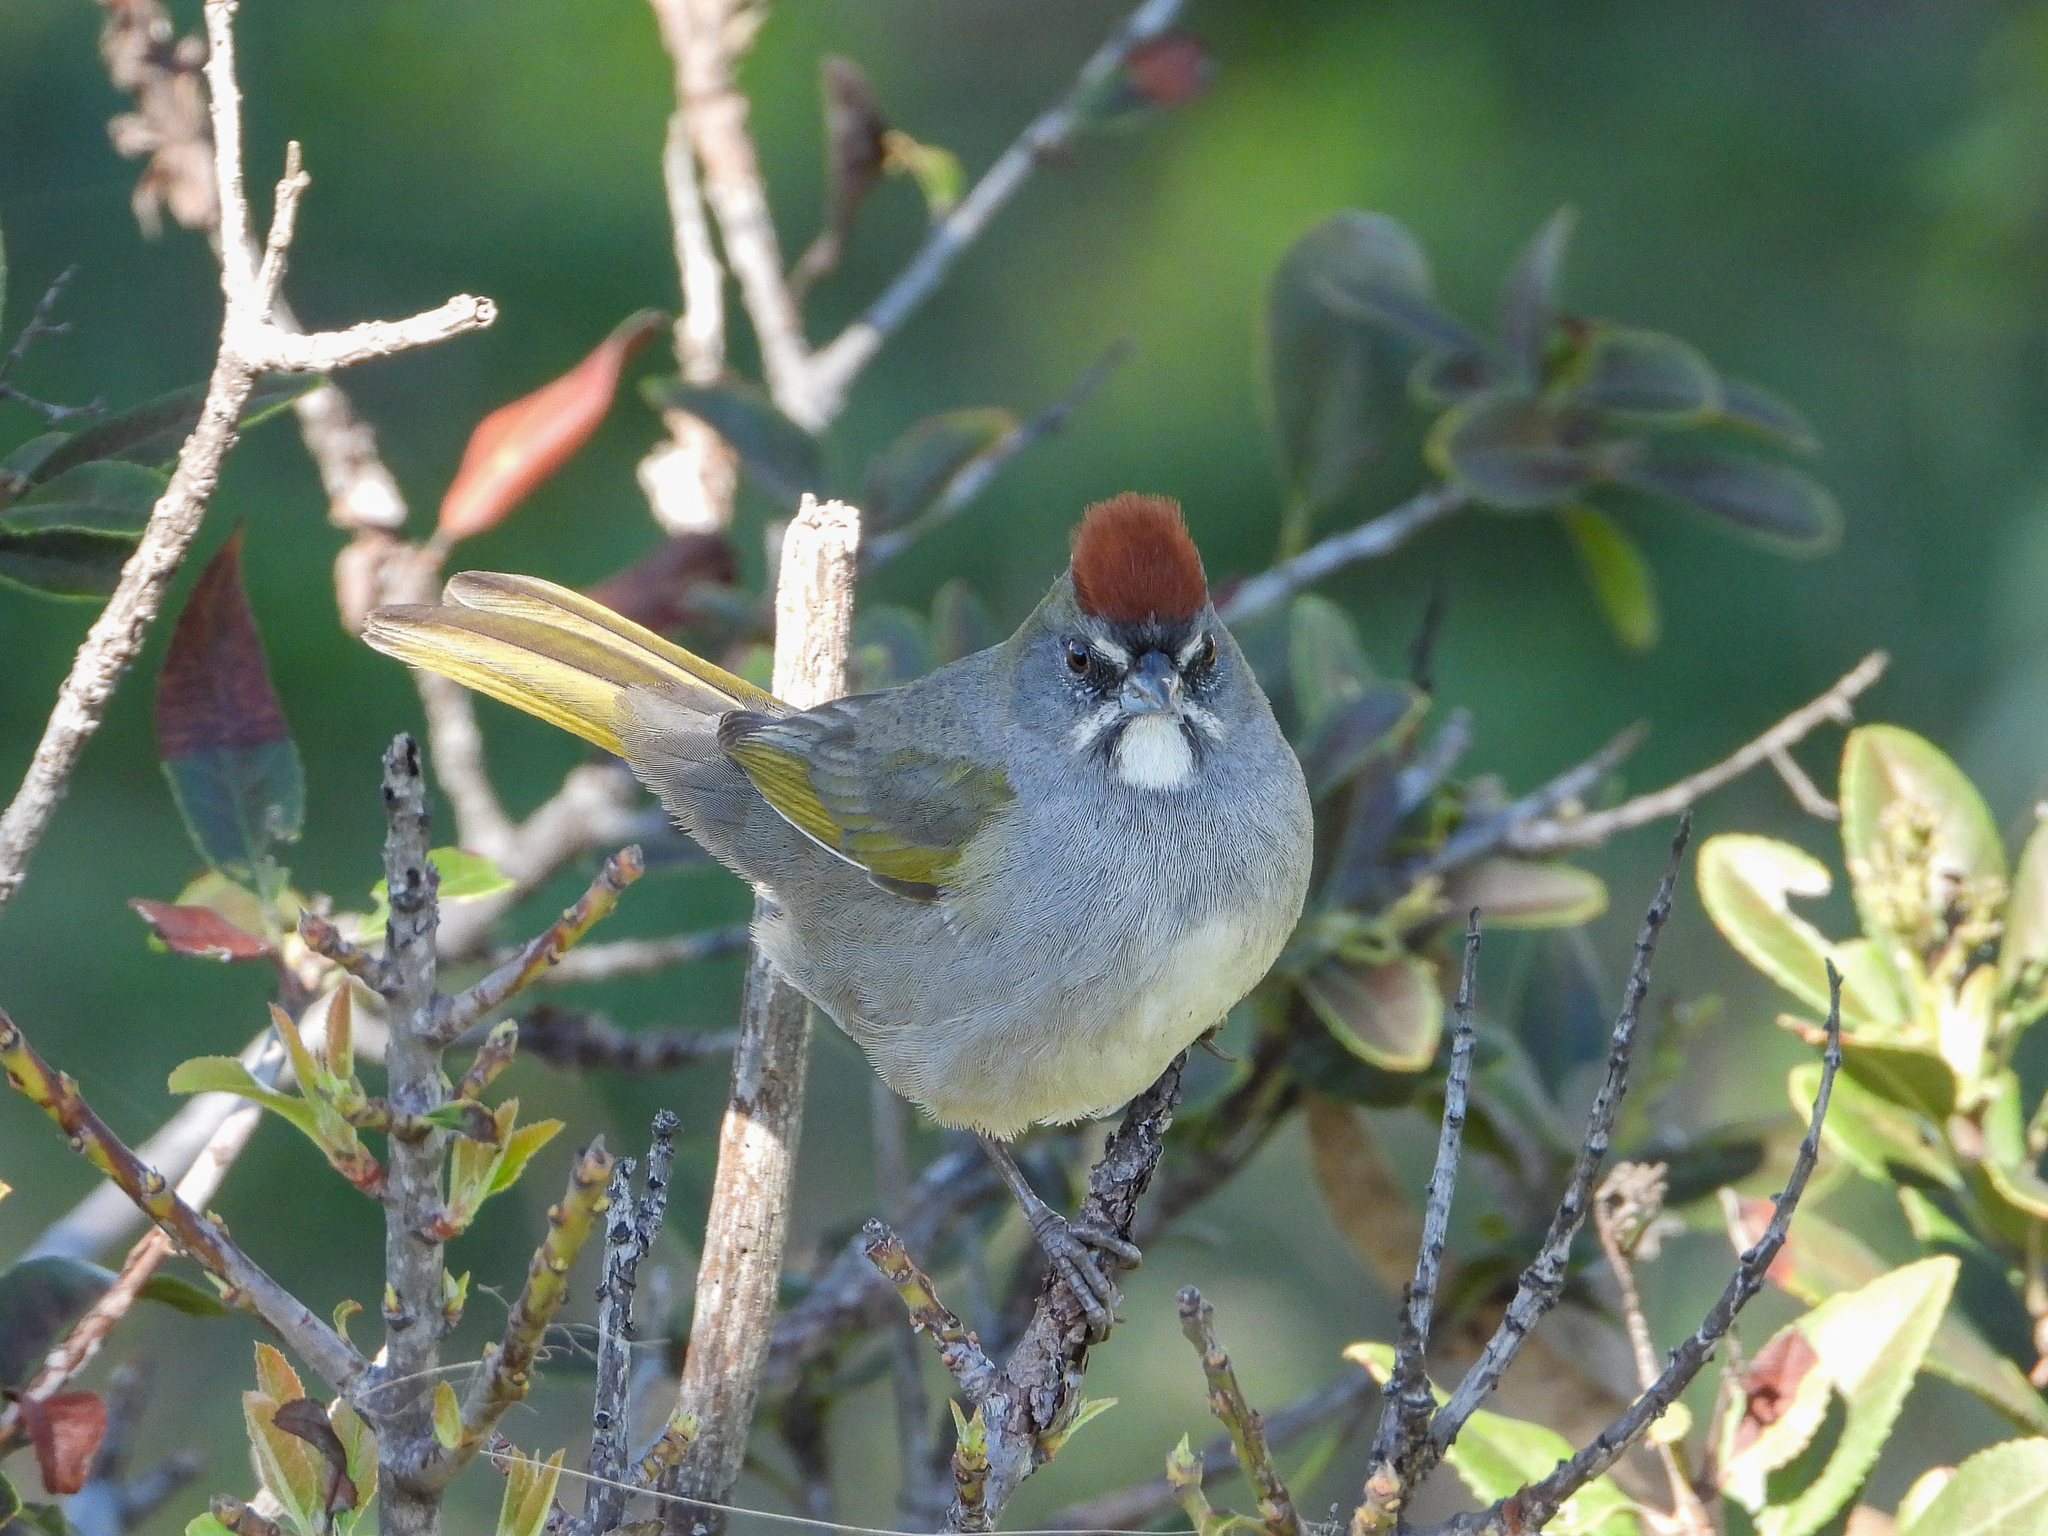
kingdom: Animalia
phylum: Chordata
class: Aves
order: Passeriformes
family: Passerellidae
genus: Pipilo
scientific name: Pipilo chlorurus
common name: Green-tailed towhee
